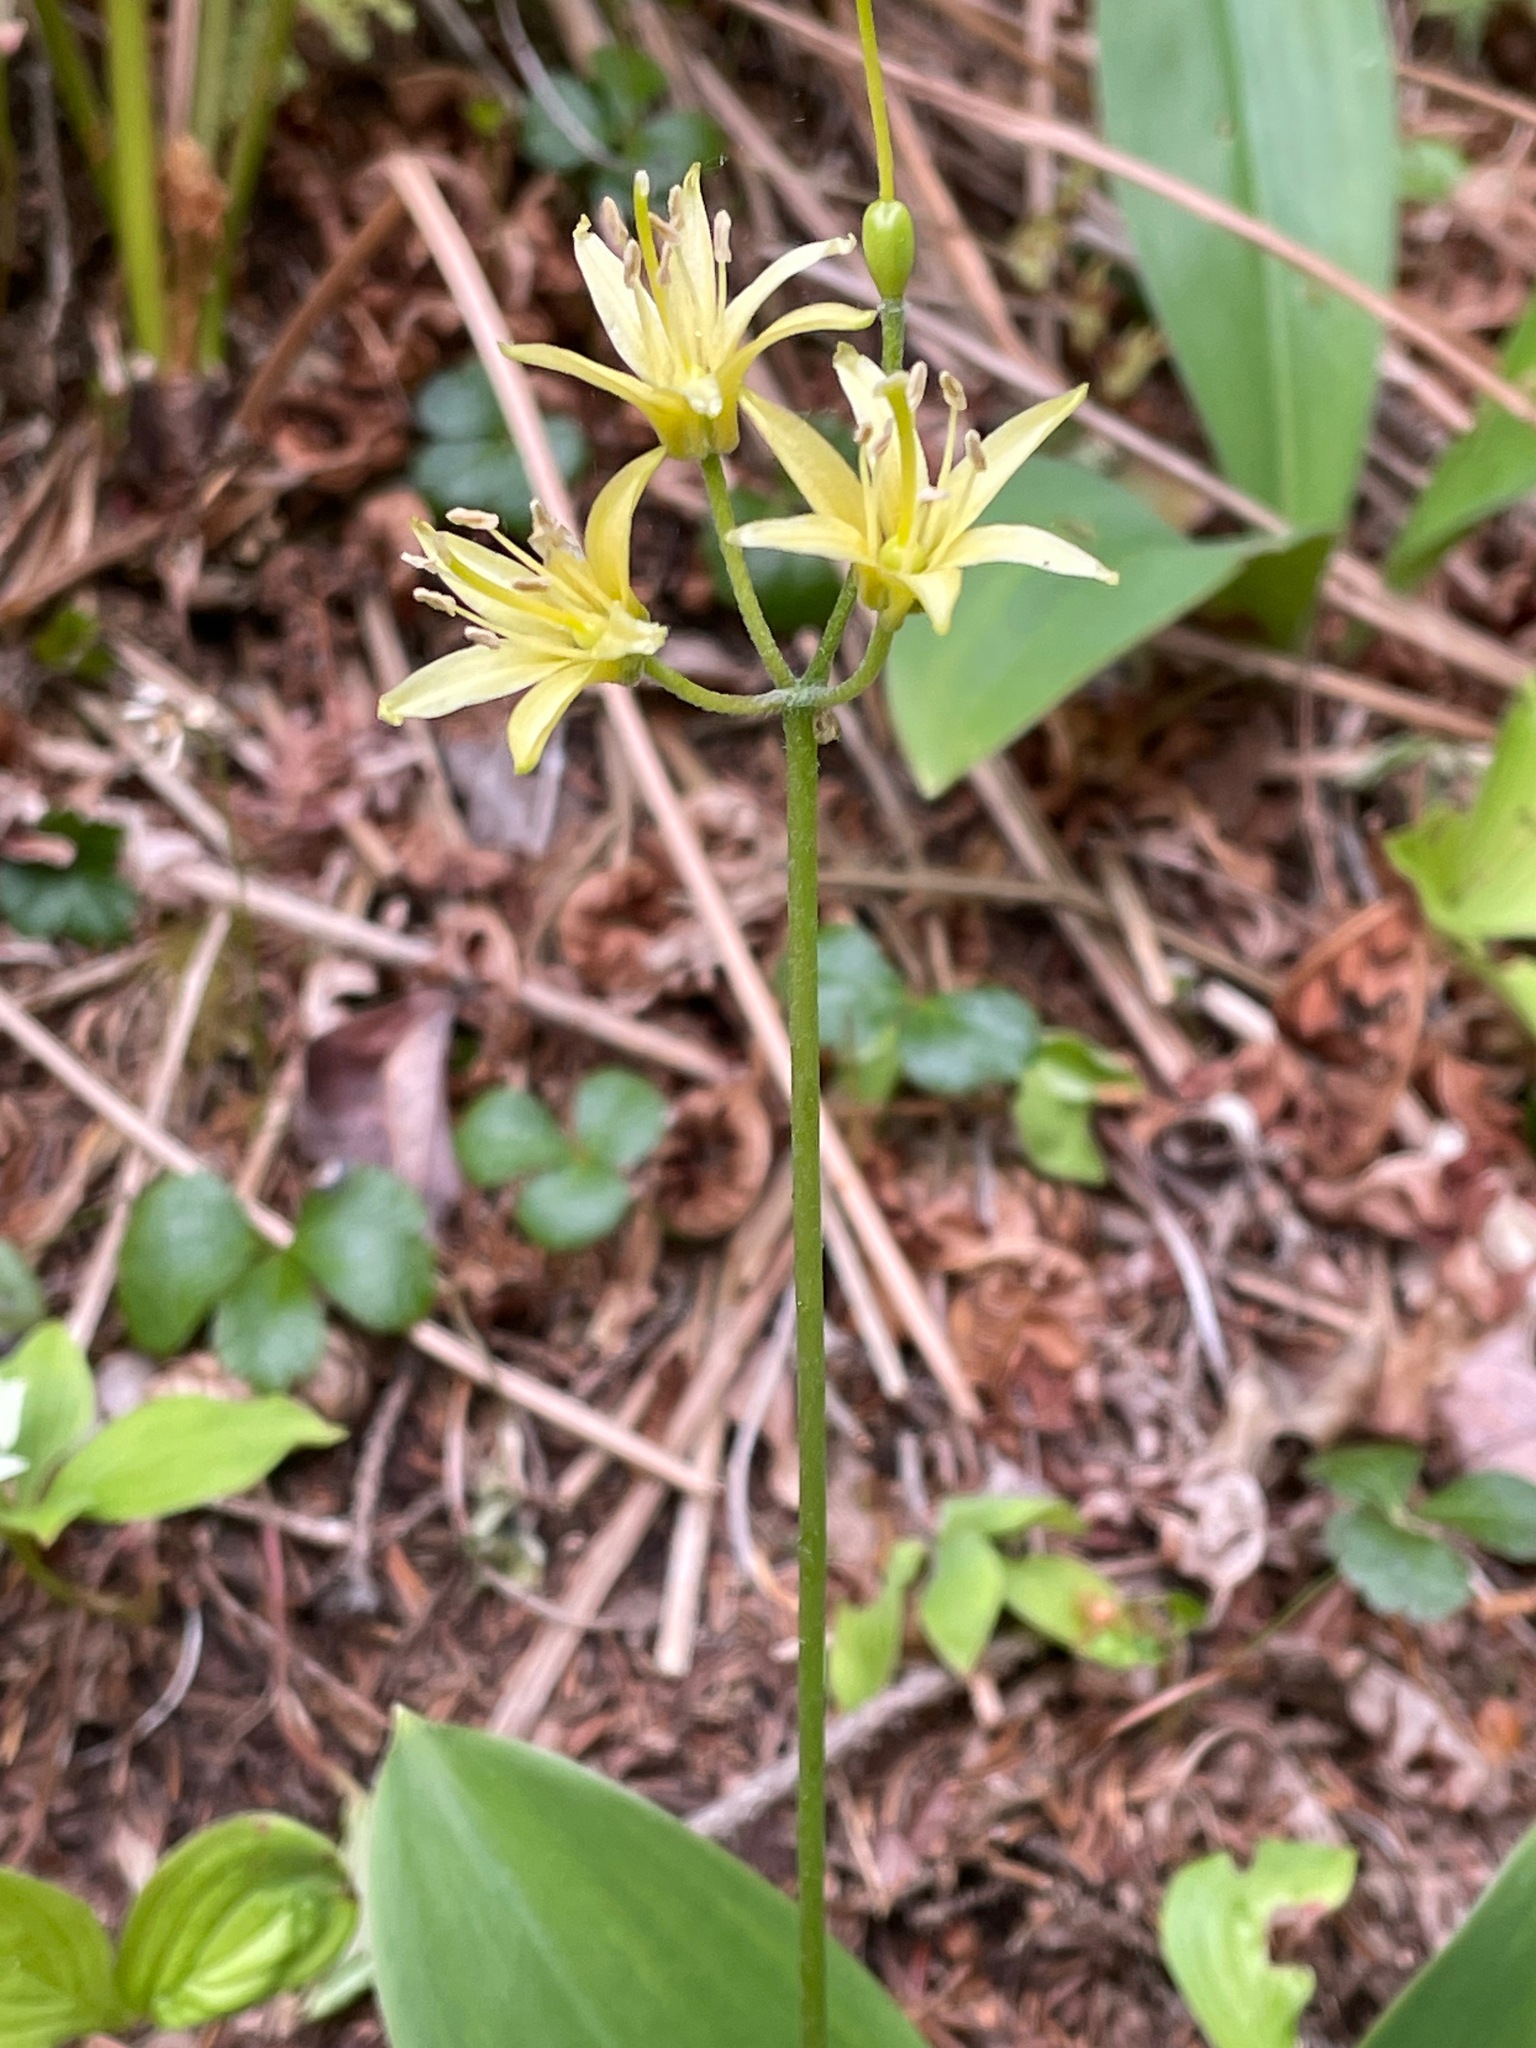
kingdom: Plantae
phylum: Tracheophyta
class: Liliopsida
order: Liliales
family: Liliaceae
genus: Clintonia
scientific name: Clintonia borealis
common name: Yellow clintonia
